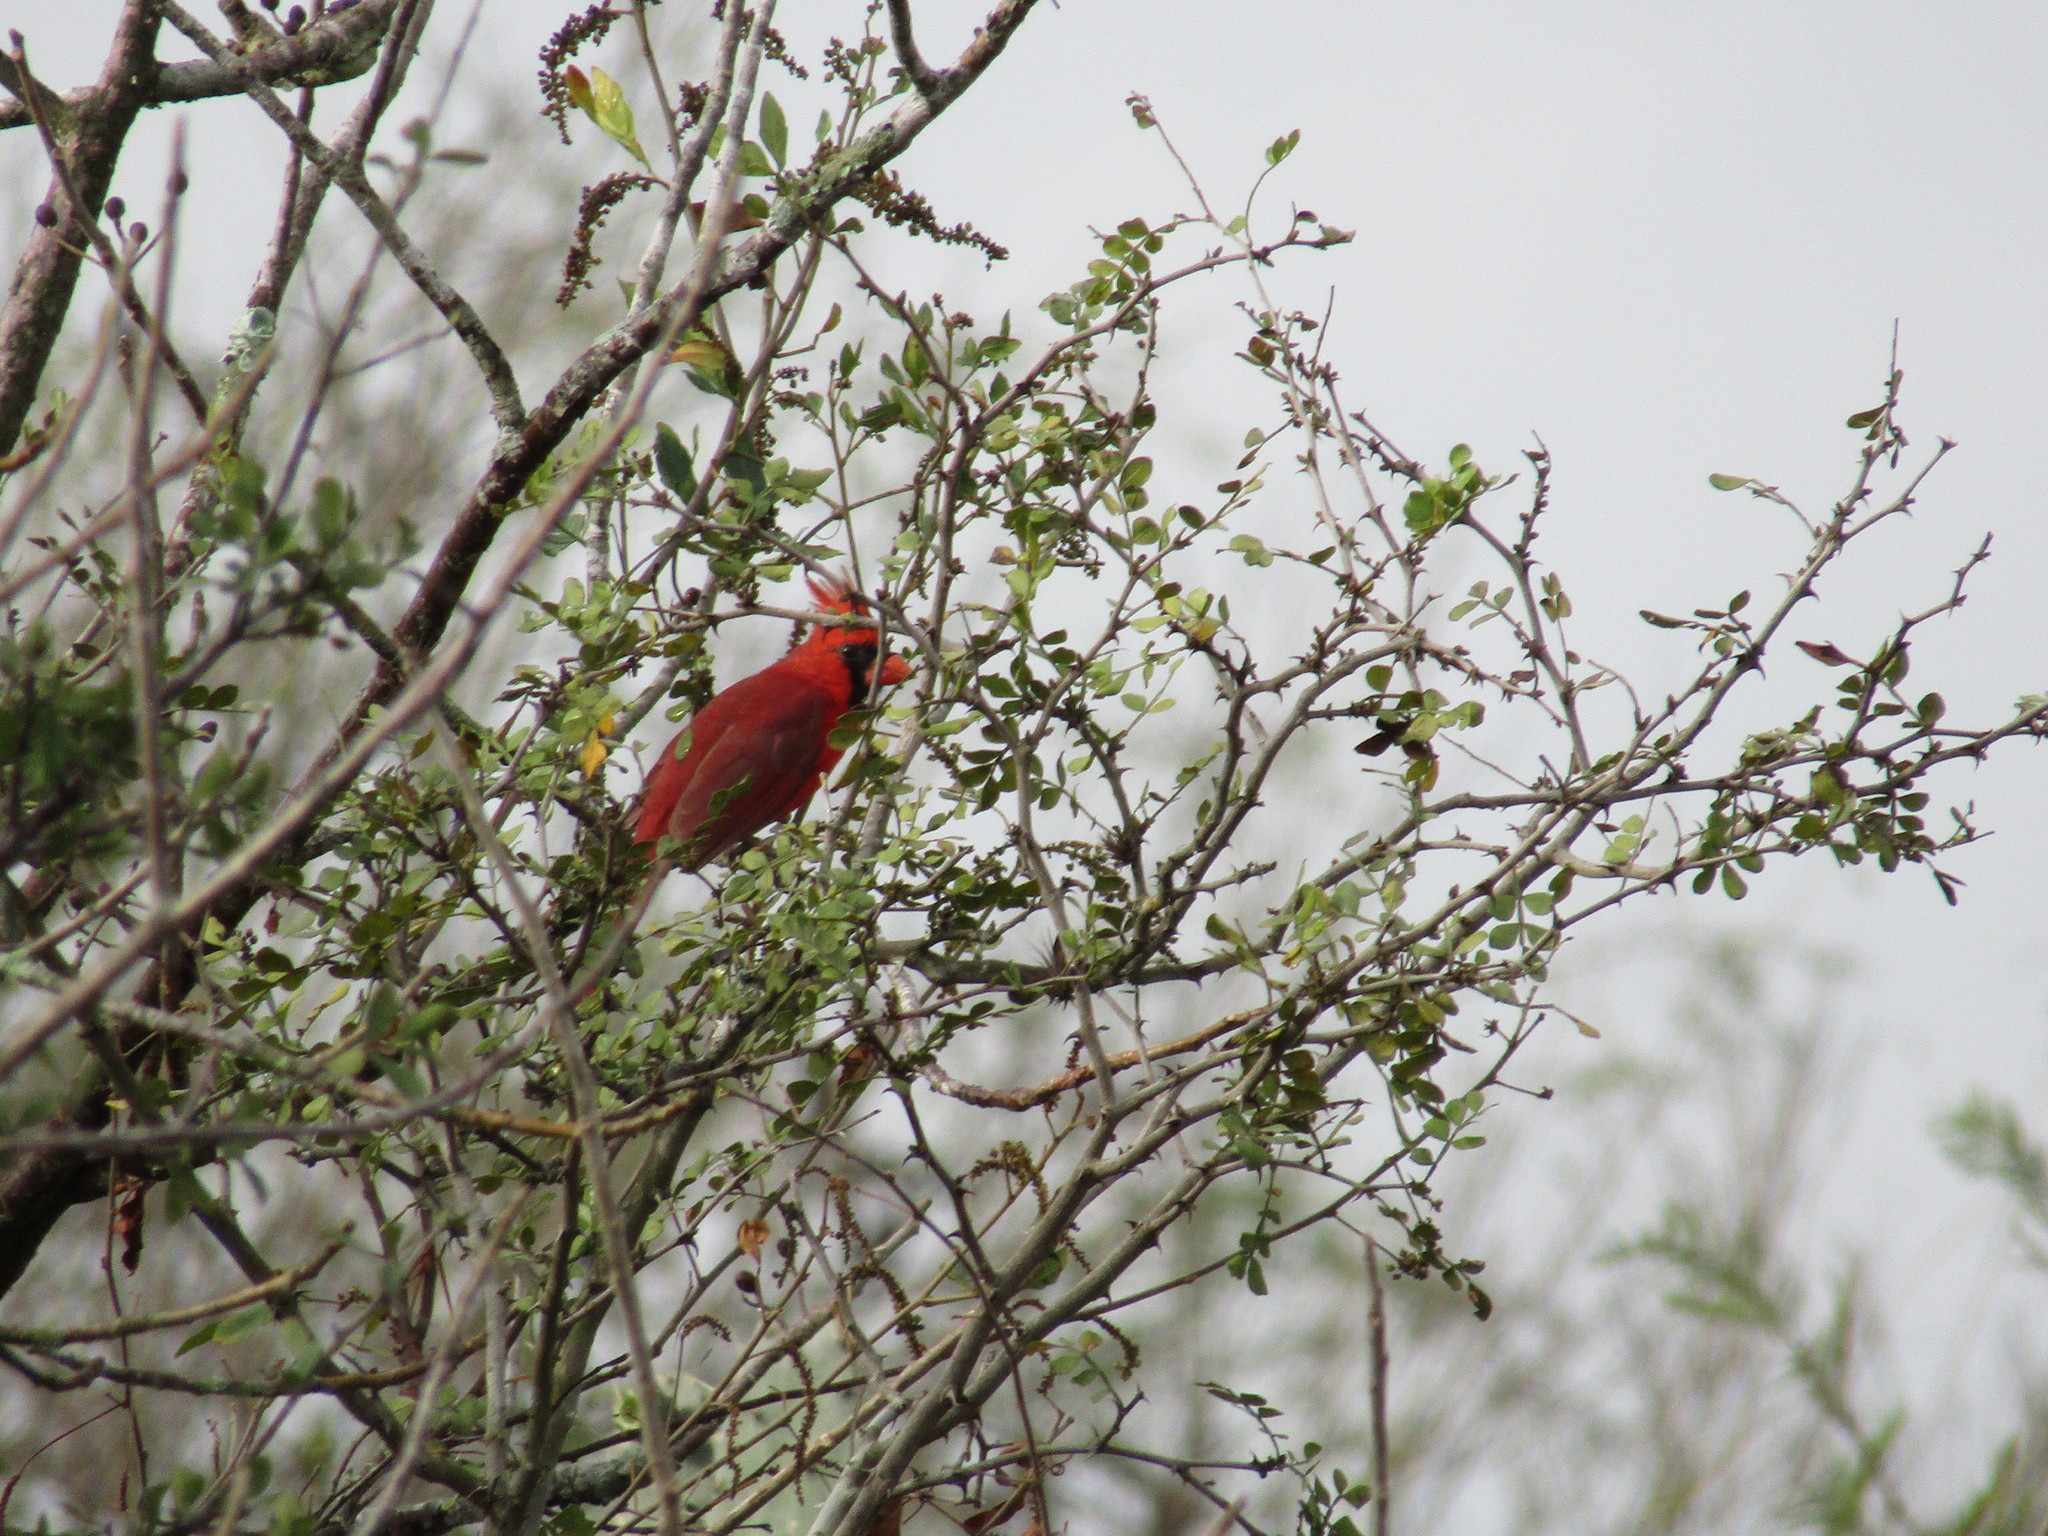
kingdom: Animalia
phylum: Chordata
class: Aves
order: Passeriformes
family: Cardinalidae
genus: Cardinalis
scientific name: Cardinalis cardinalis
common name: Northern cardinal
